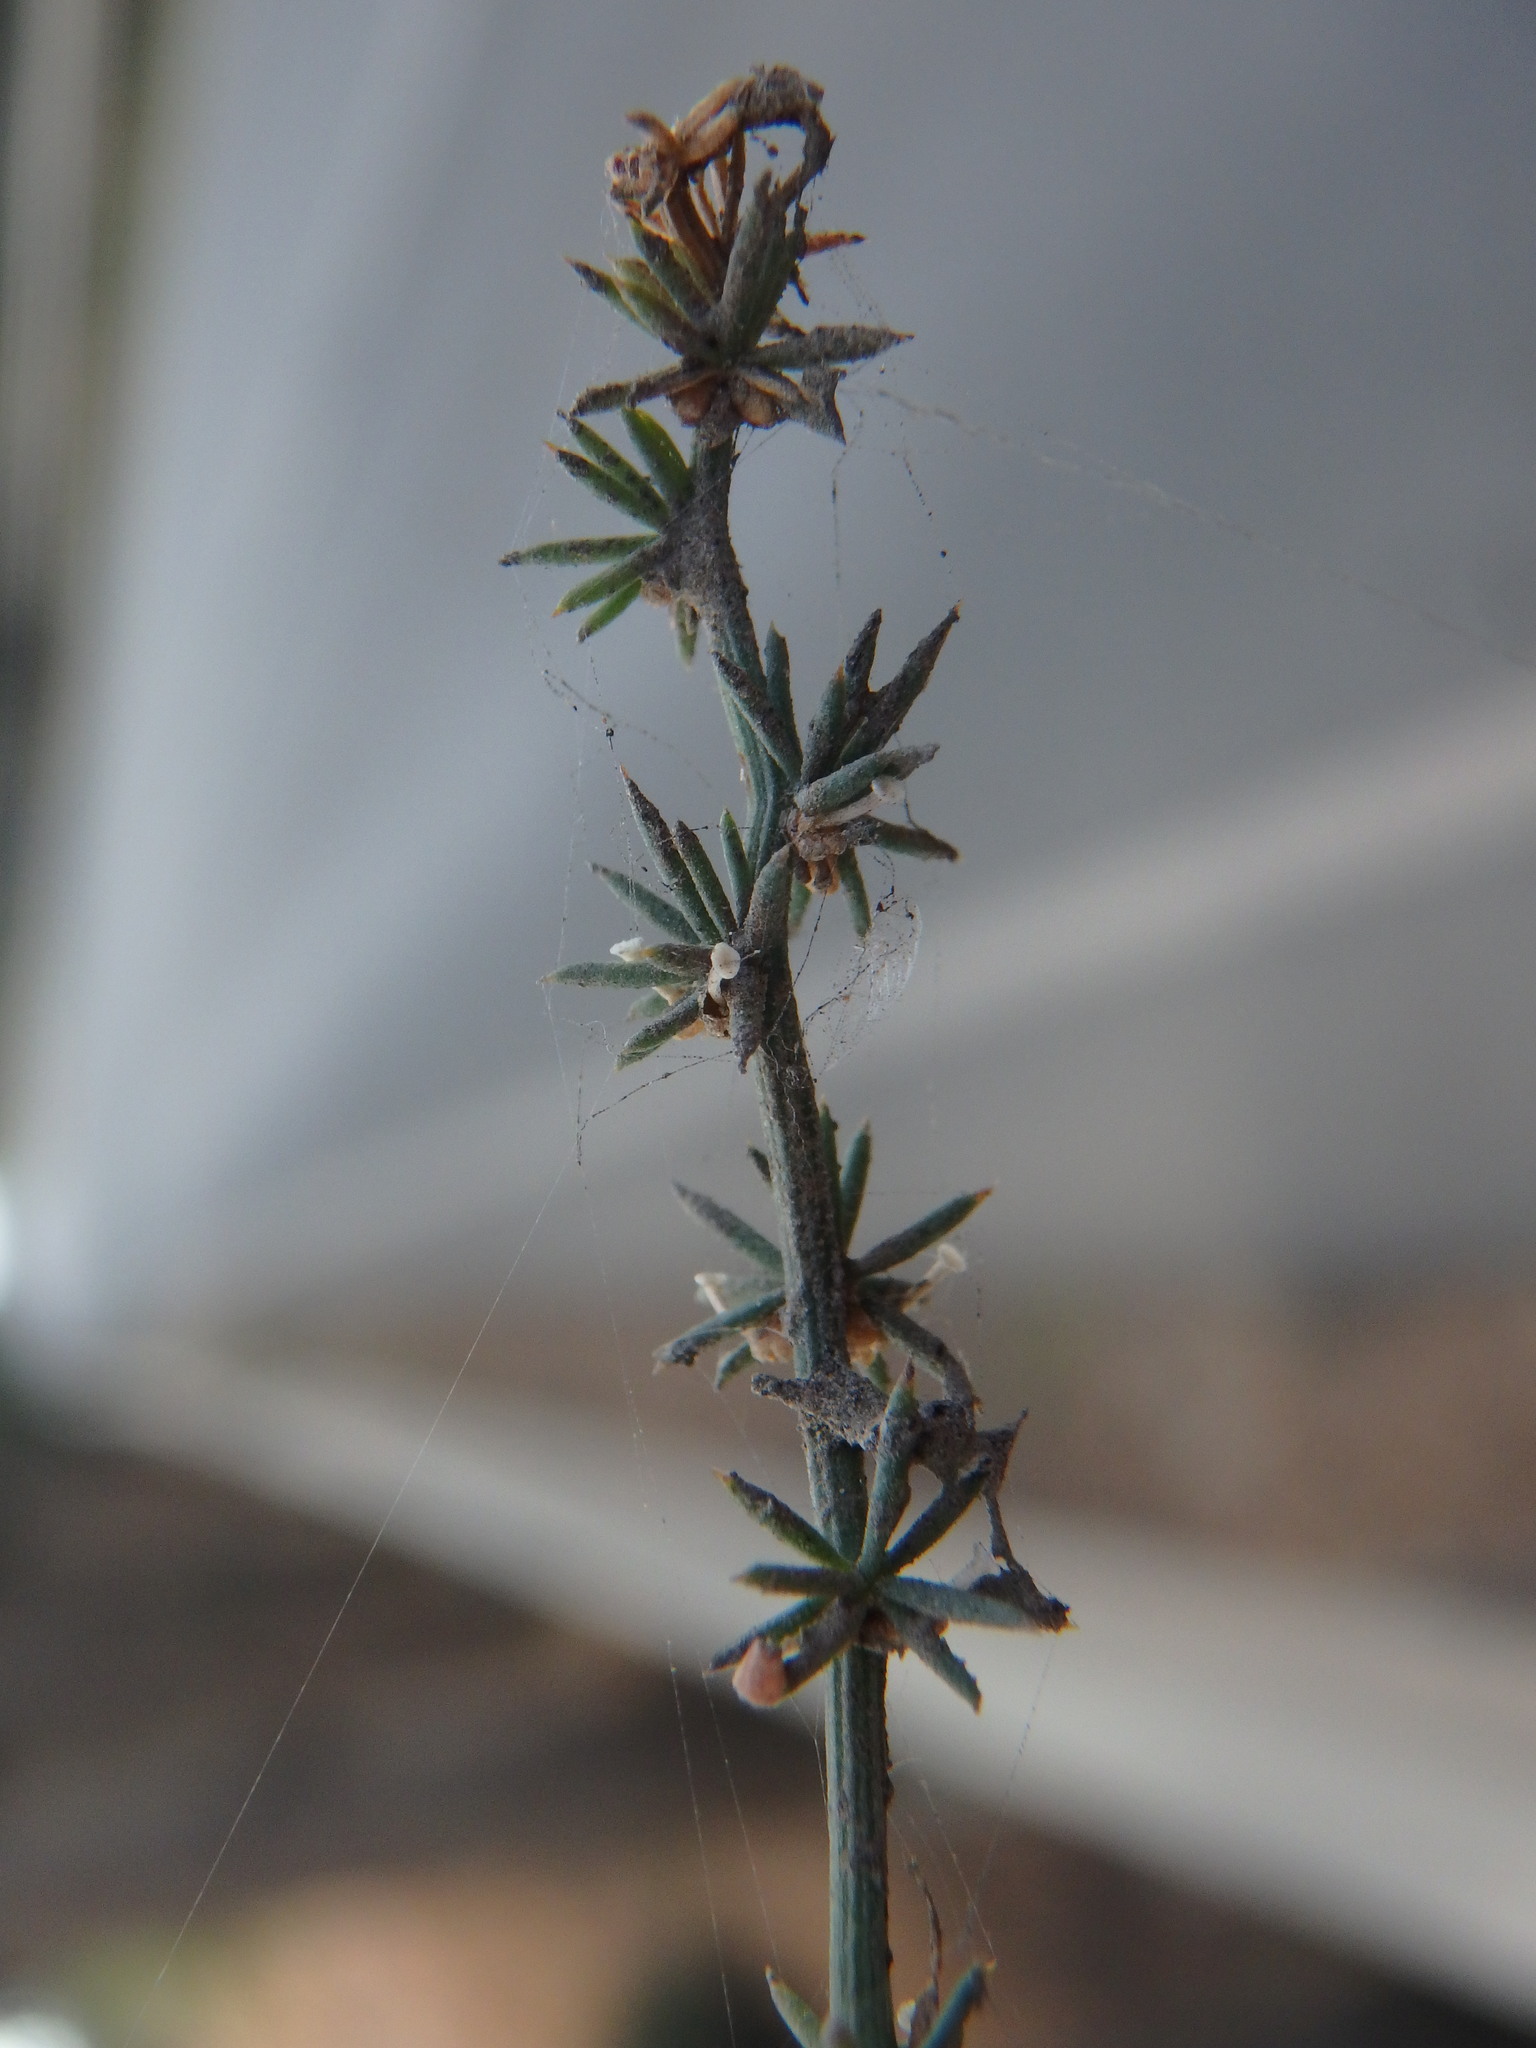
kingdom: Plantae
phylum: Tracheophyta
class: Liliopsida
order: Asparagales
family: Asparagaceae
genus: Asparagus
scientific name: Asparagus acutifolius
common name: Wild asparagus
